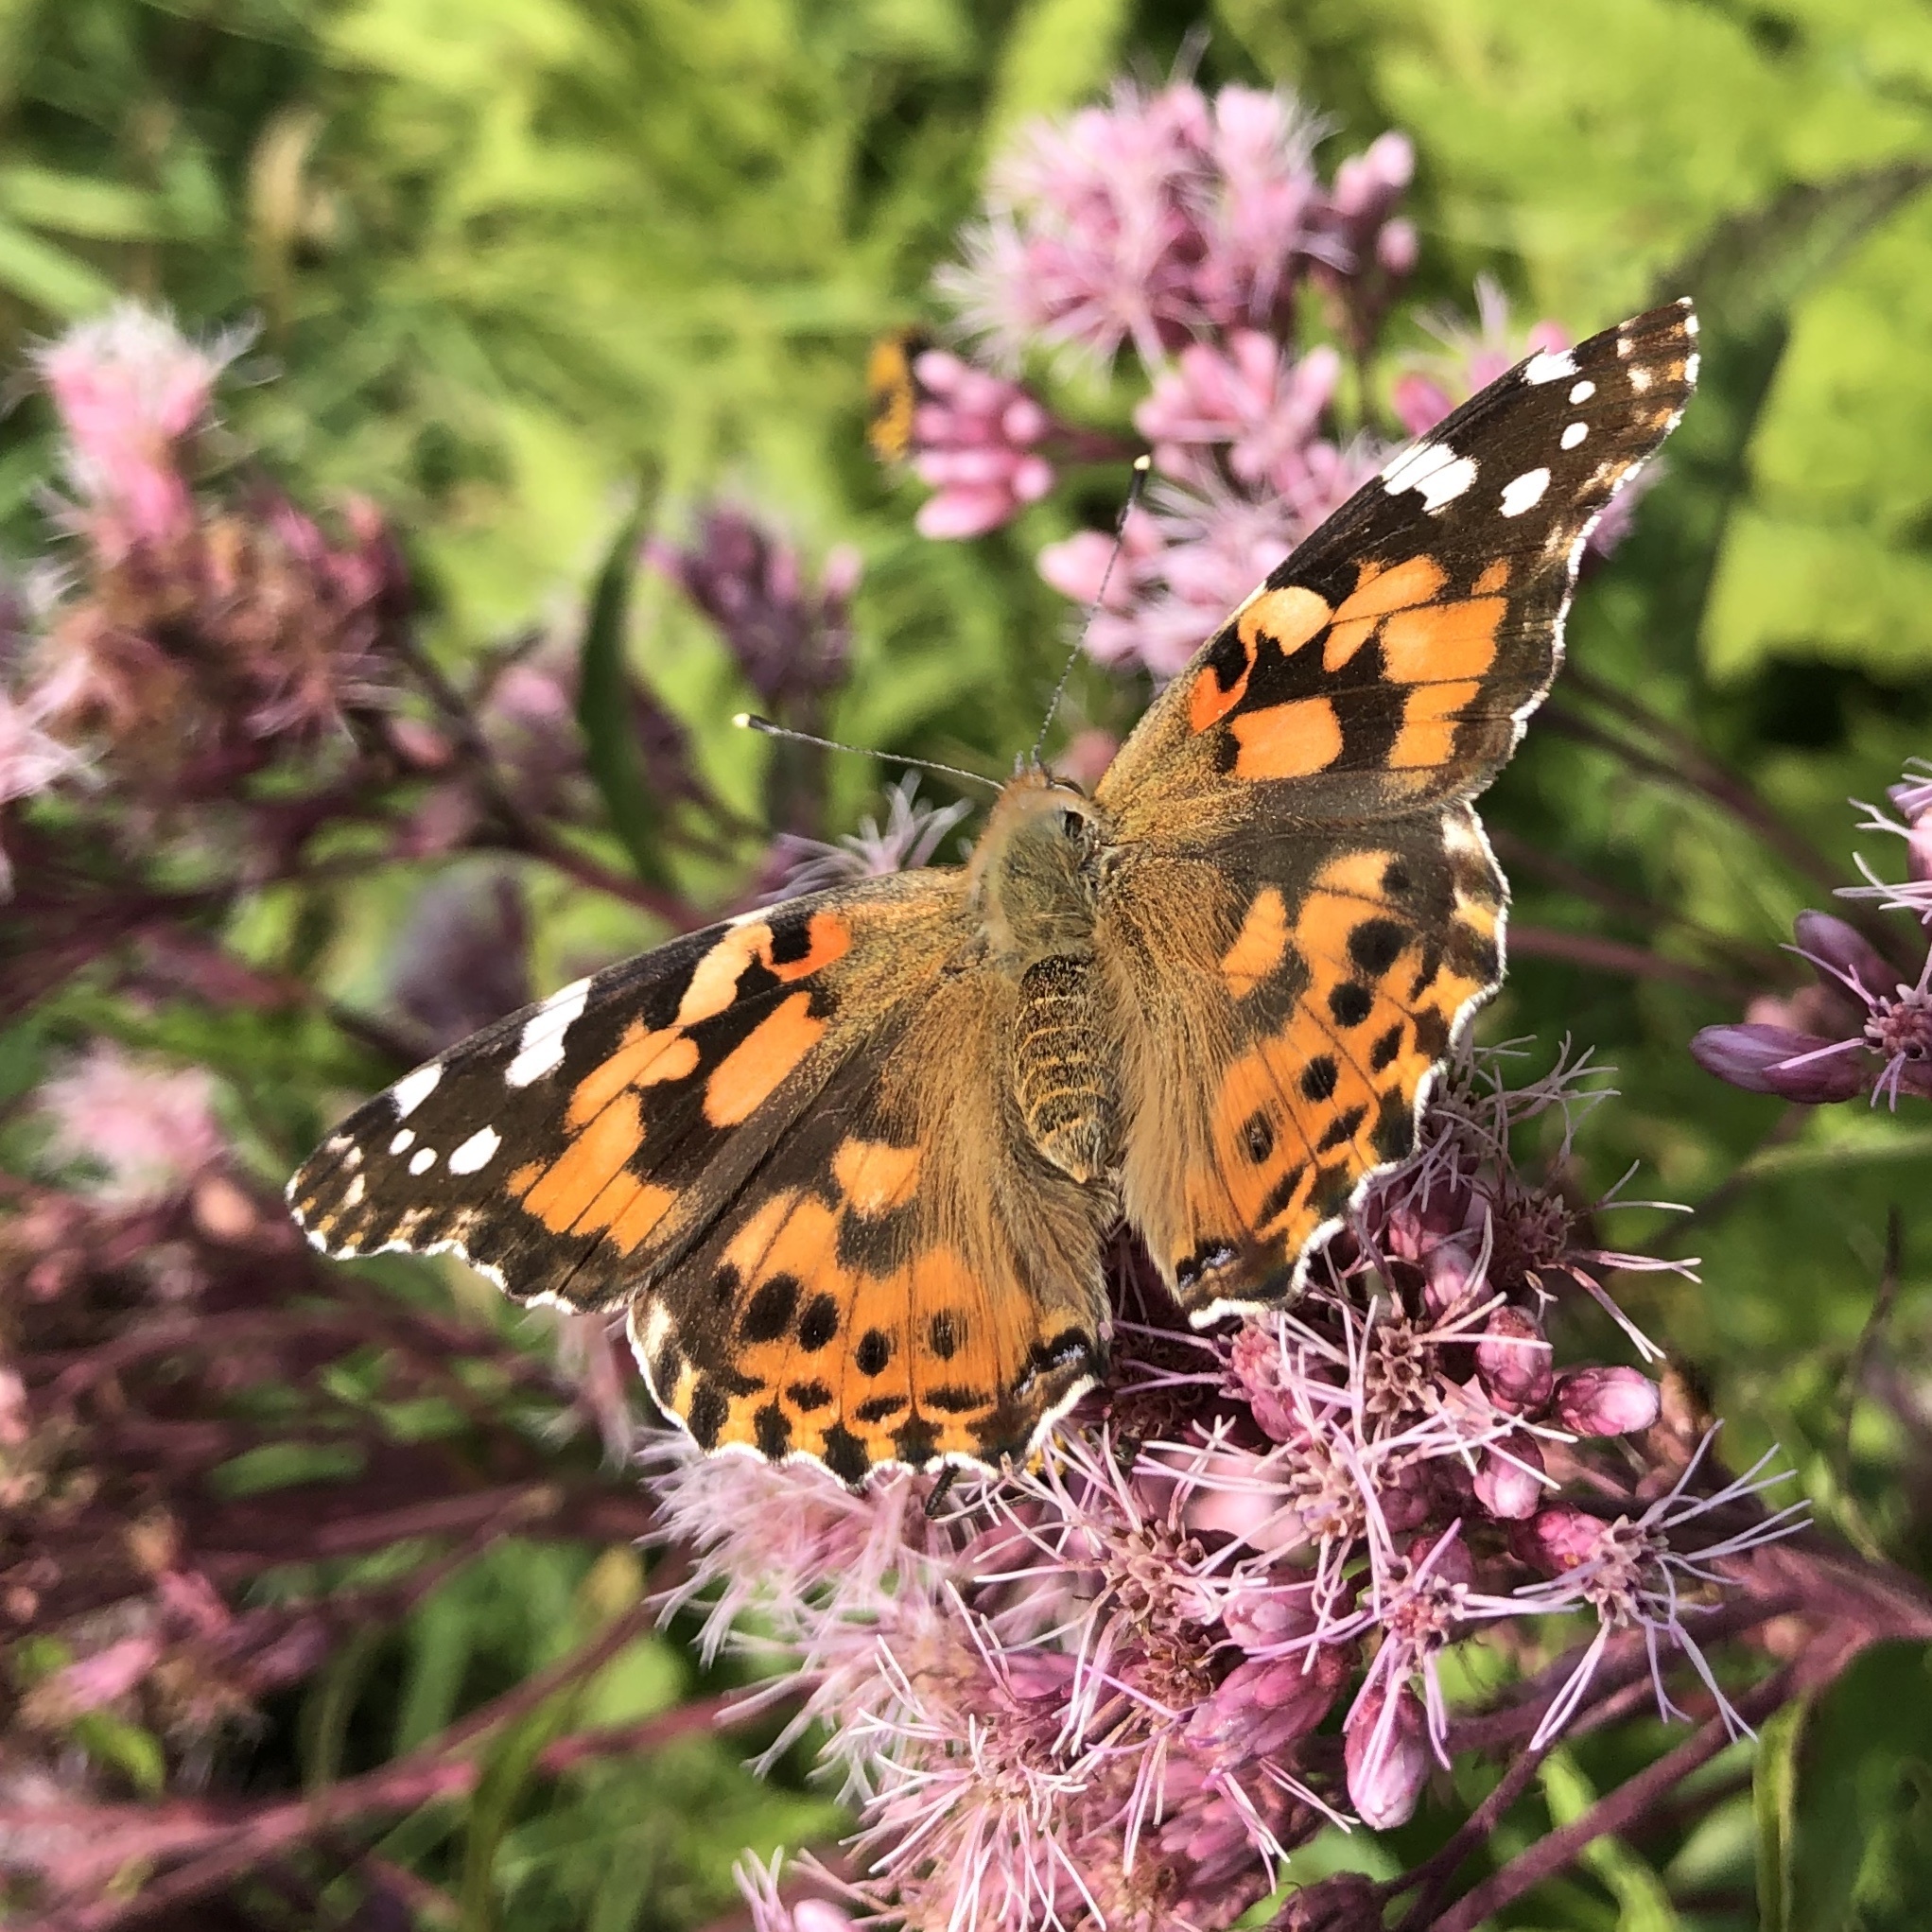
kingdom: Animalia
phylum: Arthropoda
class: Insecta
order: Lepidoptera
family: Nymphalidae
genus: Vanessa
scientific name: Vanessa cardui
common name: Painted lady
